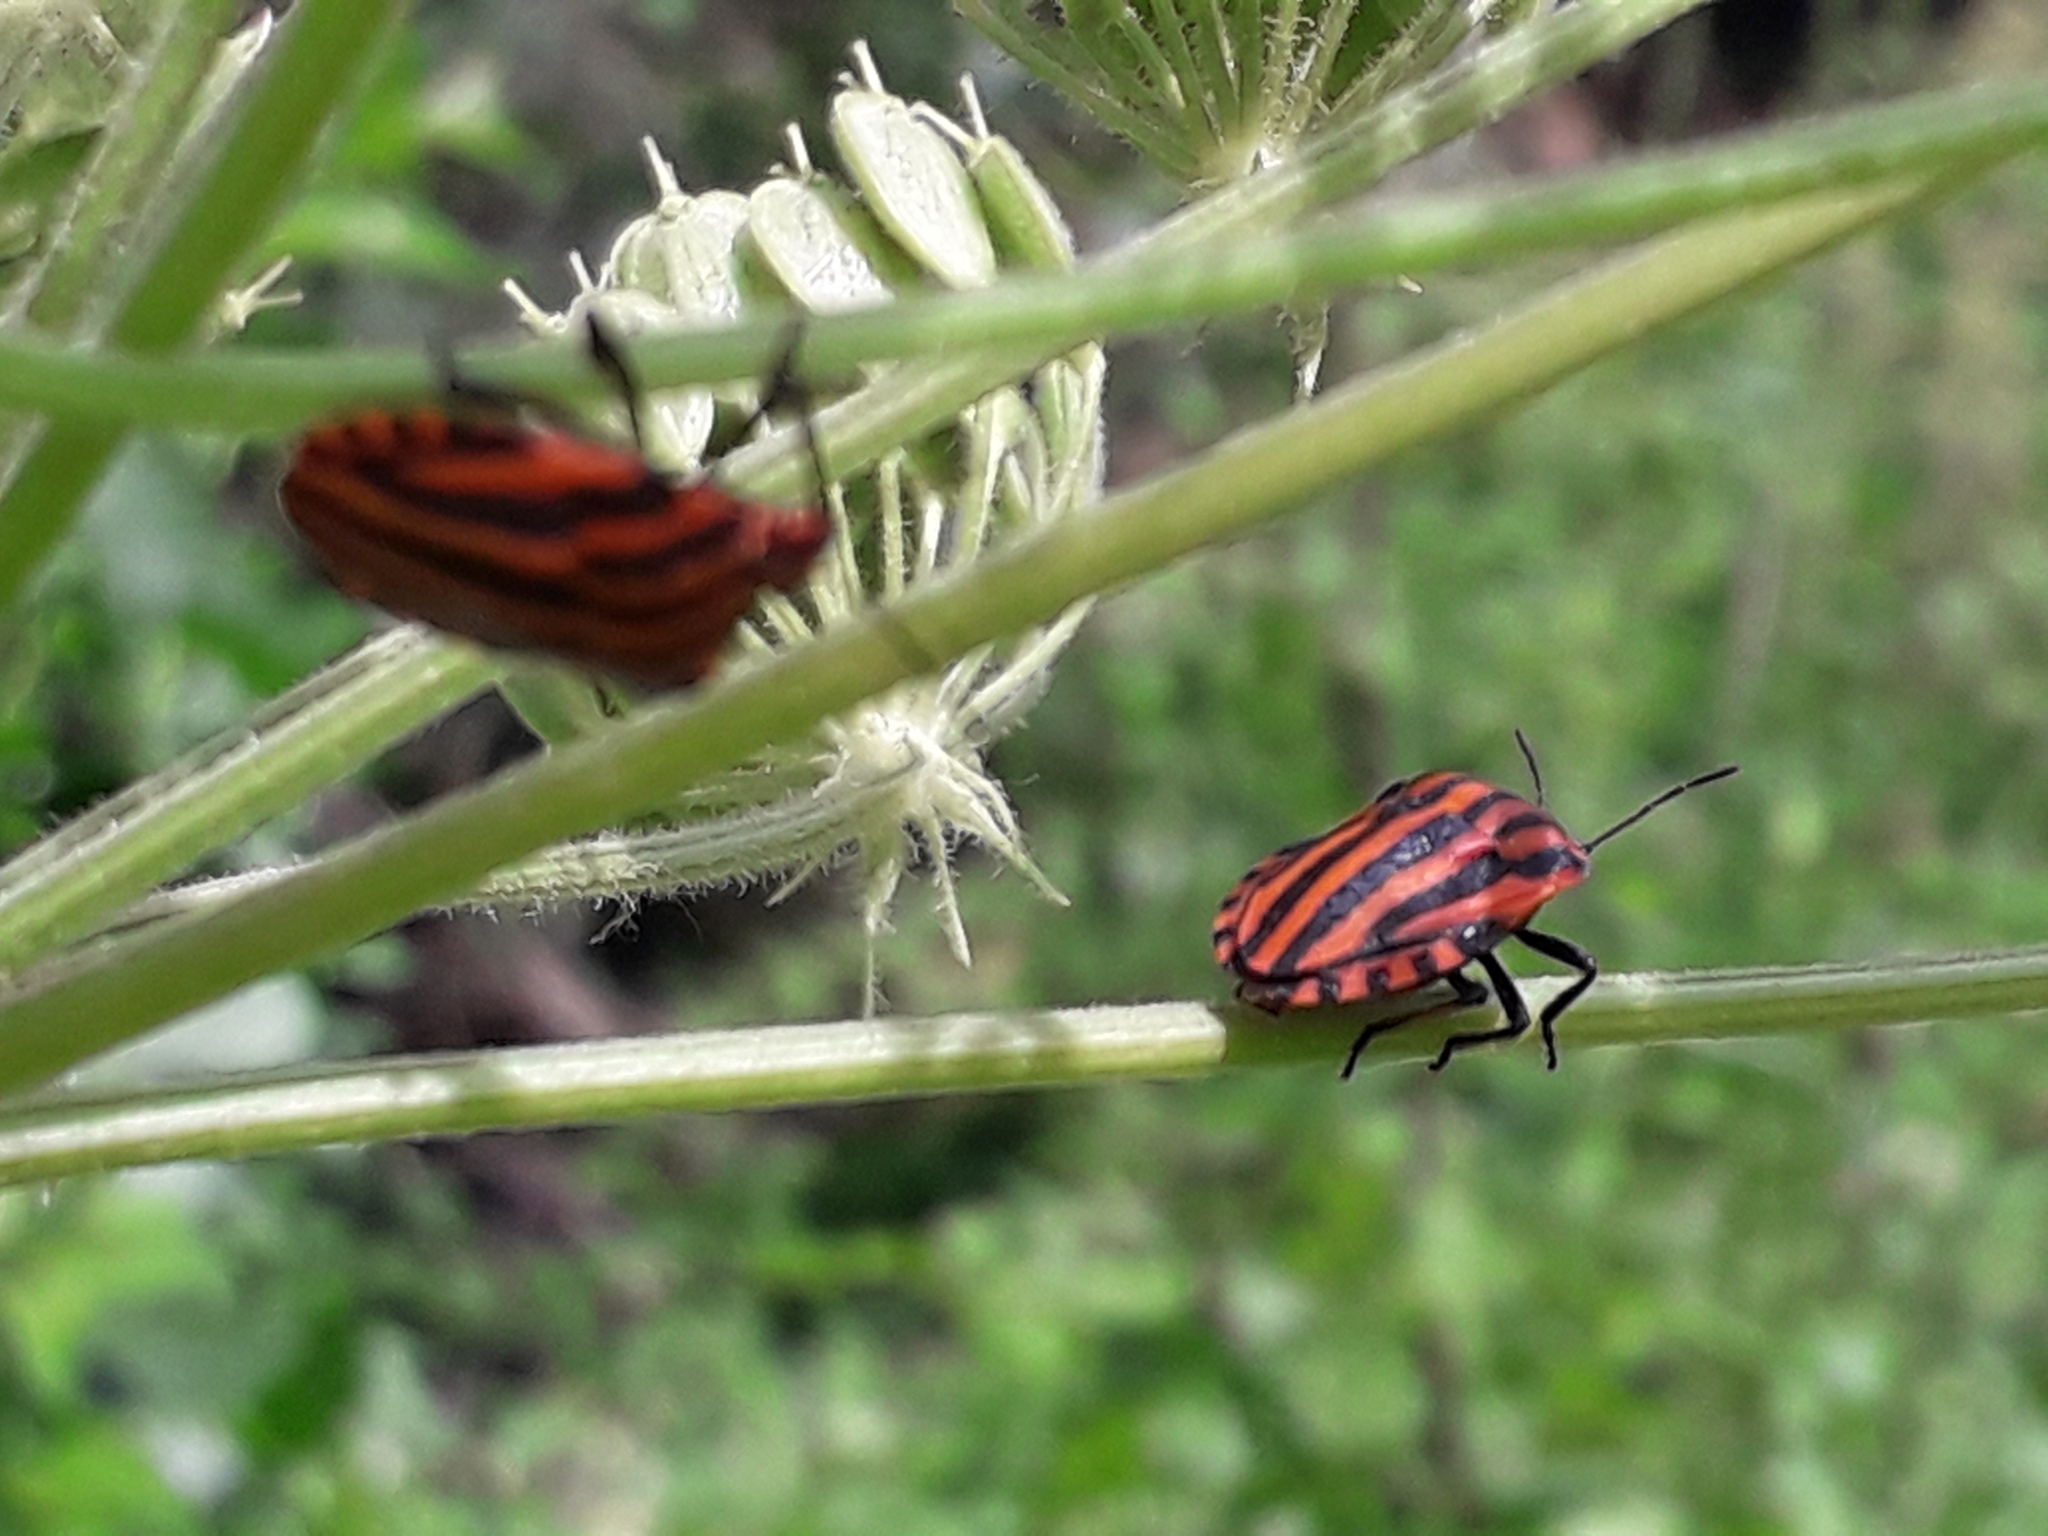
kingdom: Animalia
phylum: Arthropoda
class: Insecta
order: Hemiptera
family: Pentatomidae
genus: Graphosoma
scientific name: Graphosoma italicum
